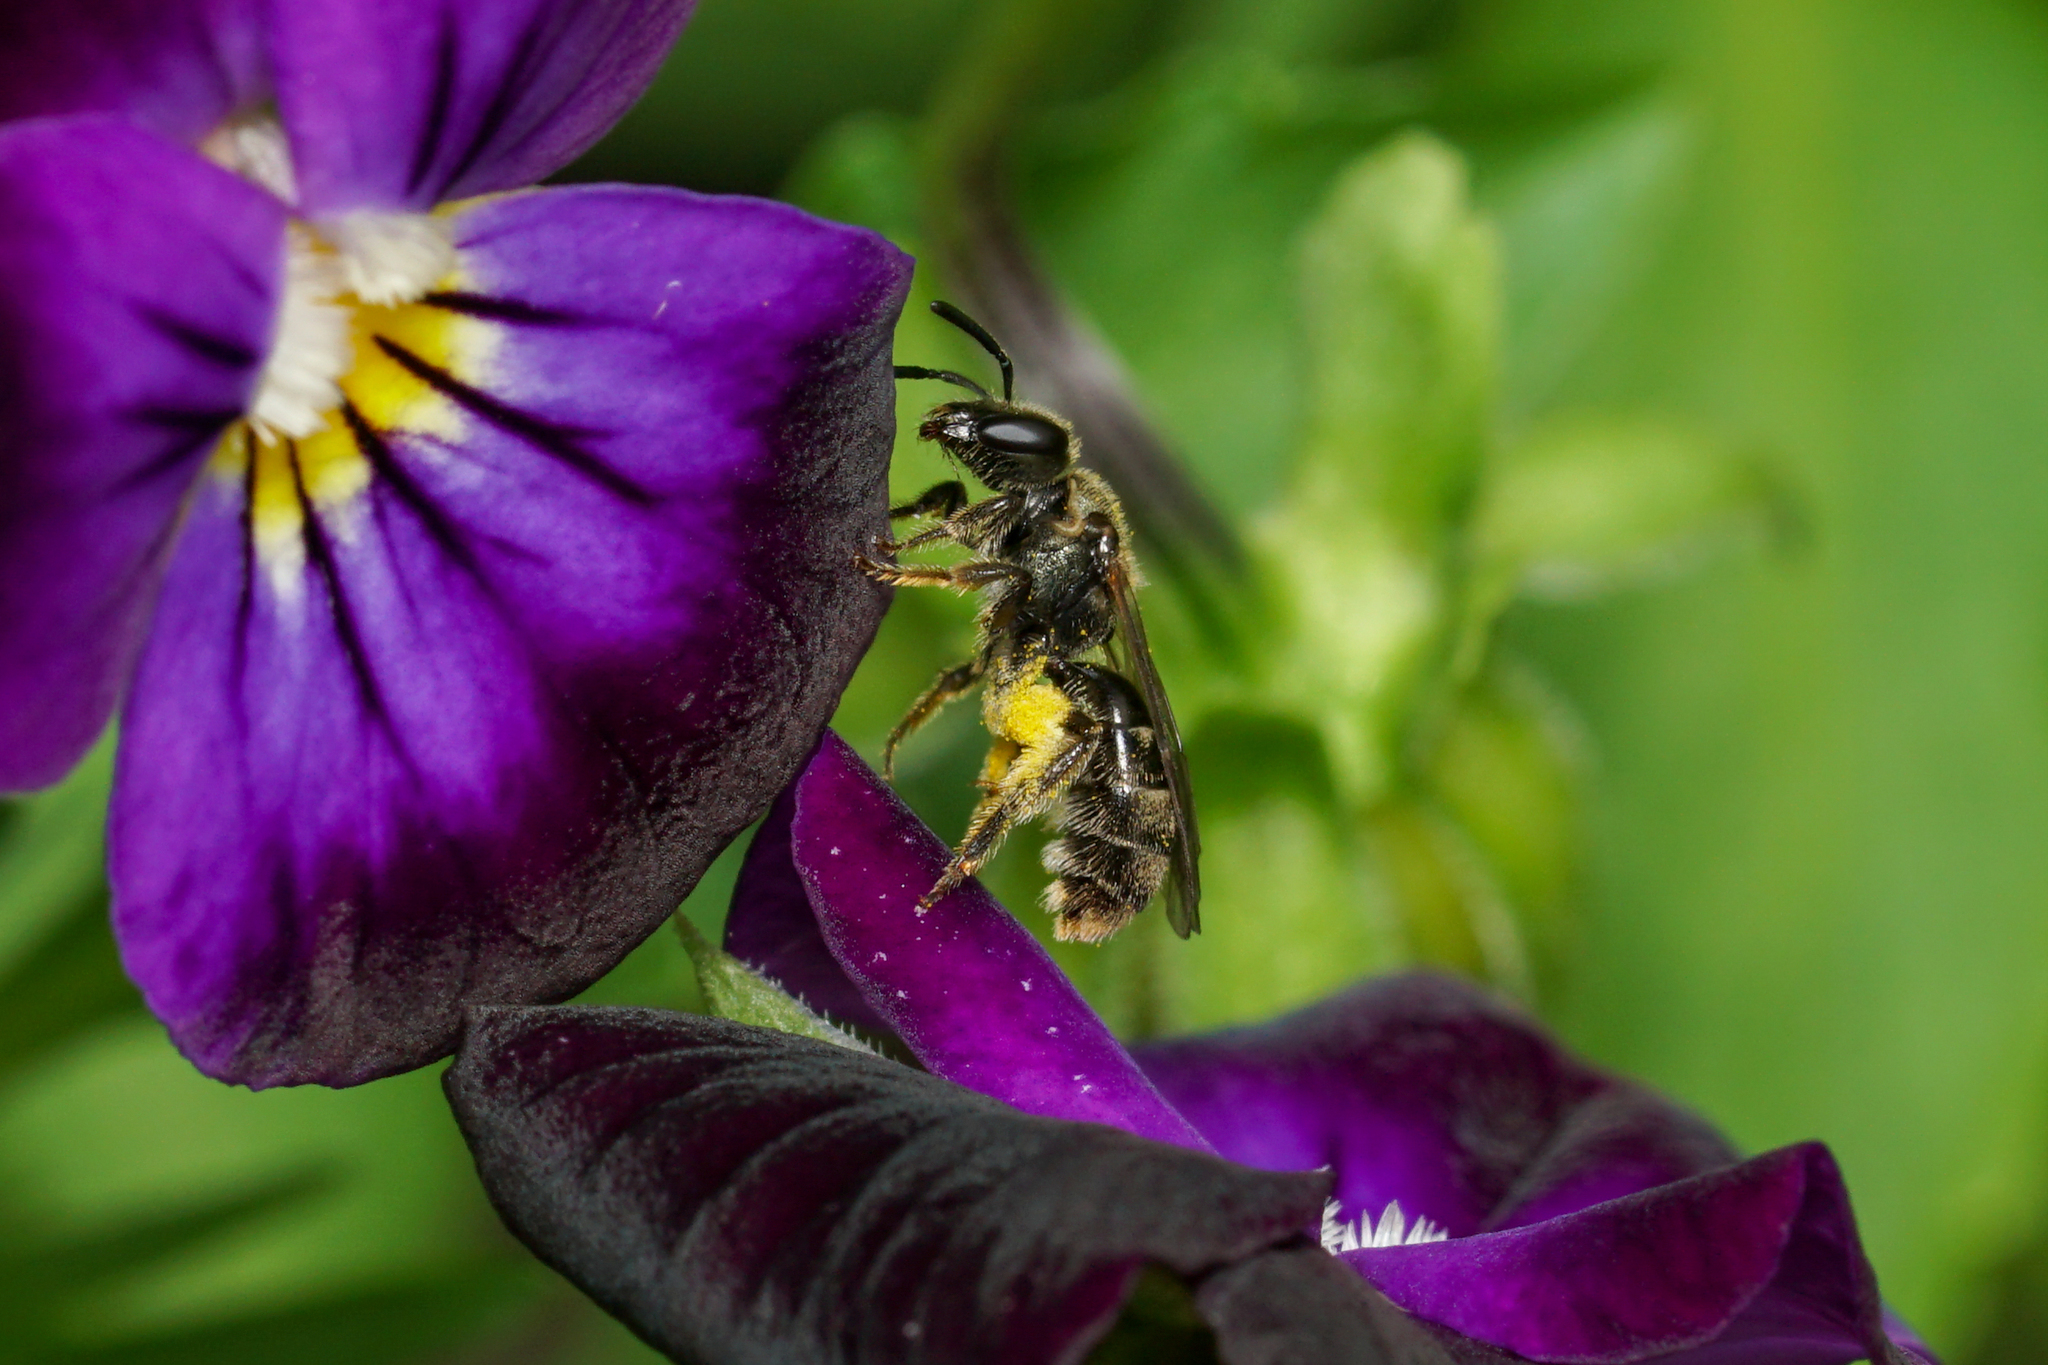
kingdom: Animalia
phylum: Arthropoda
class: Insecta
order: Hymenoptera
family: Halictidae
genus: Dialictus
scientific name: Dialictus
